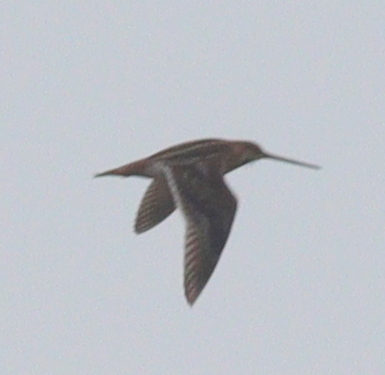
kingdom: Animalia
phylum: Chordata
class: Aves
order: Charadriiformes
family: Scolopacidae
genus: Gallinago
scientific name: Gallinago gallinago
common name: Common snipe
